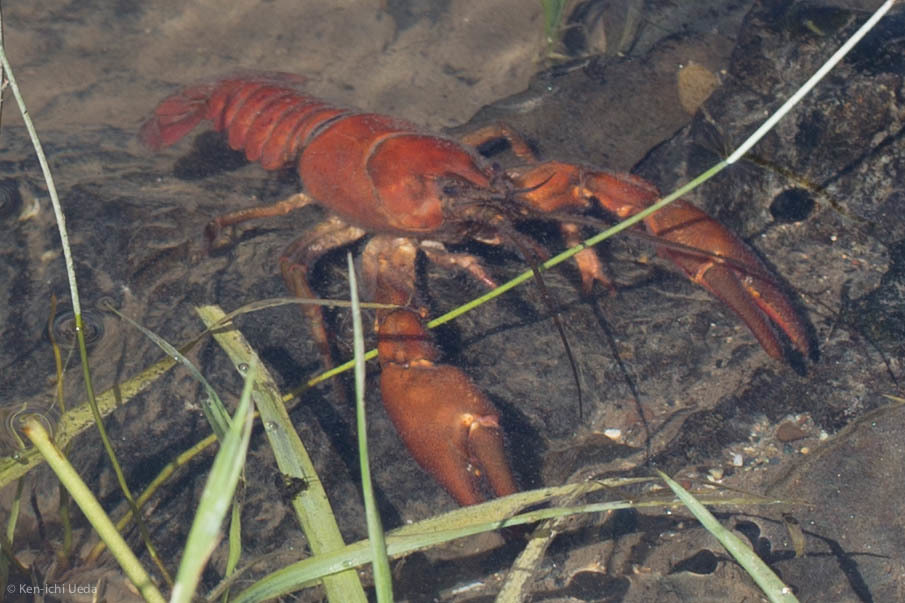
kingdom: Animalia
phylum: Arthropoda
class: Malacostraca
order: Decapoda
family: Astacidae
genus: Pacifastacus
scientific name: Pacifastacus leniusculus
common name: Signal crayfish
